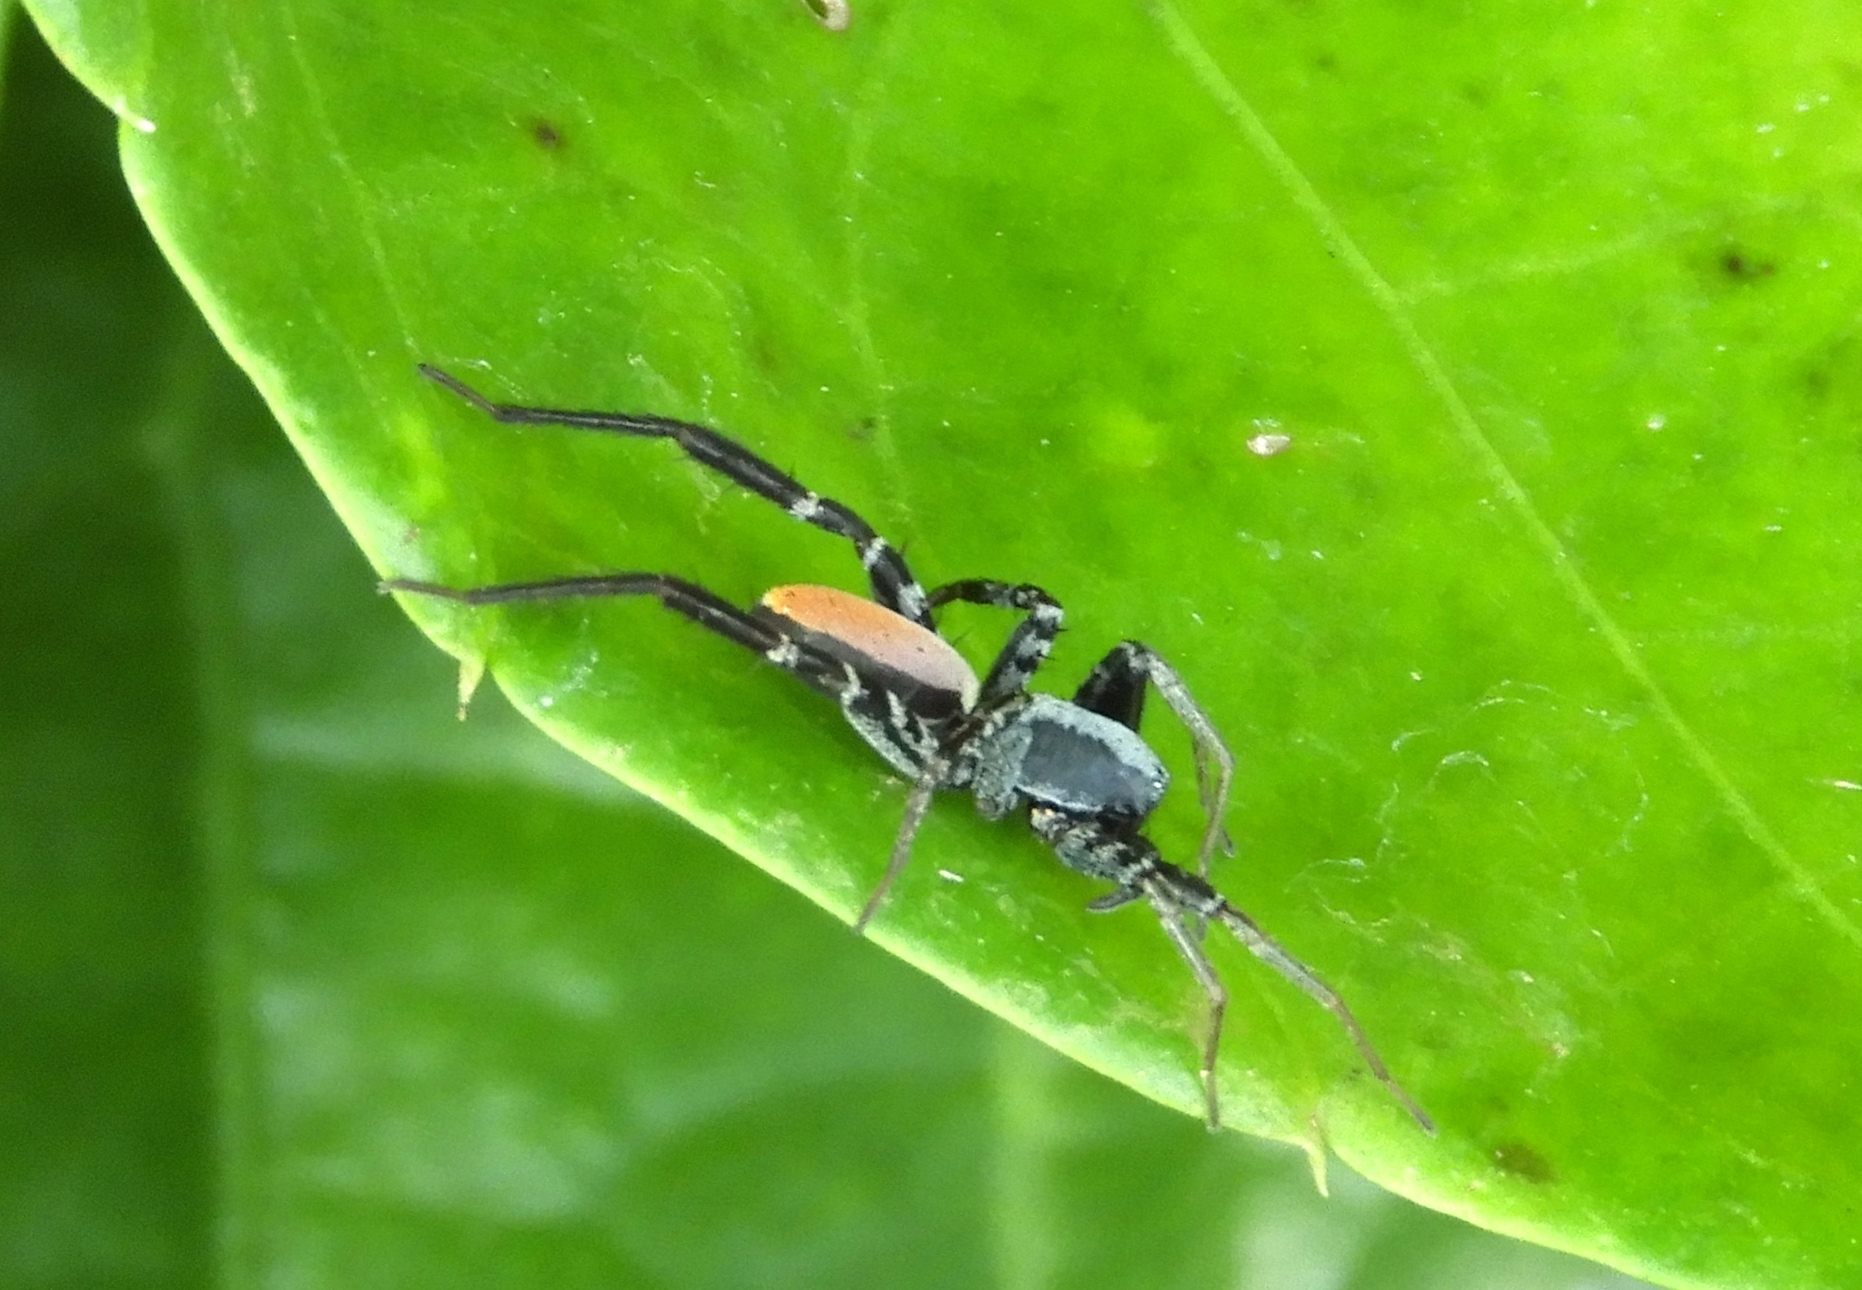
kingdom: Animalia
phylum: Arthropoda
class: Arachnida
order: Araneae
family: Corinnidae
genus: Castianeira
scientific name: Castianeira dorsata
